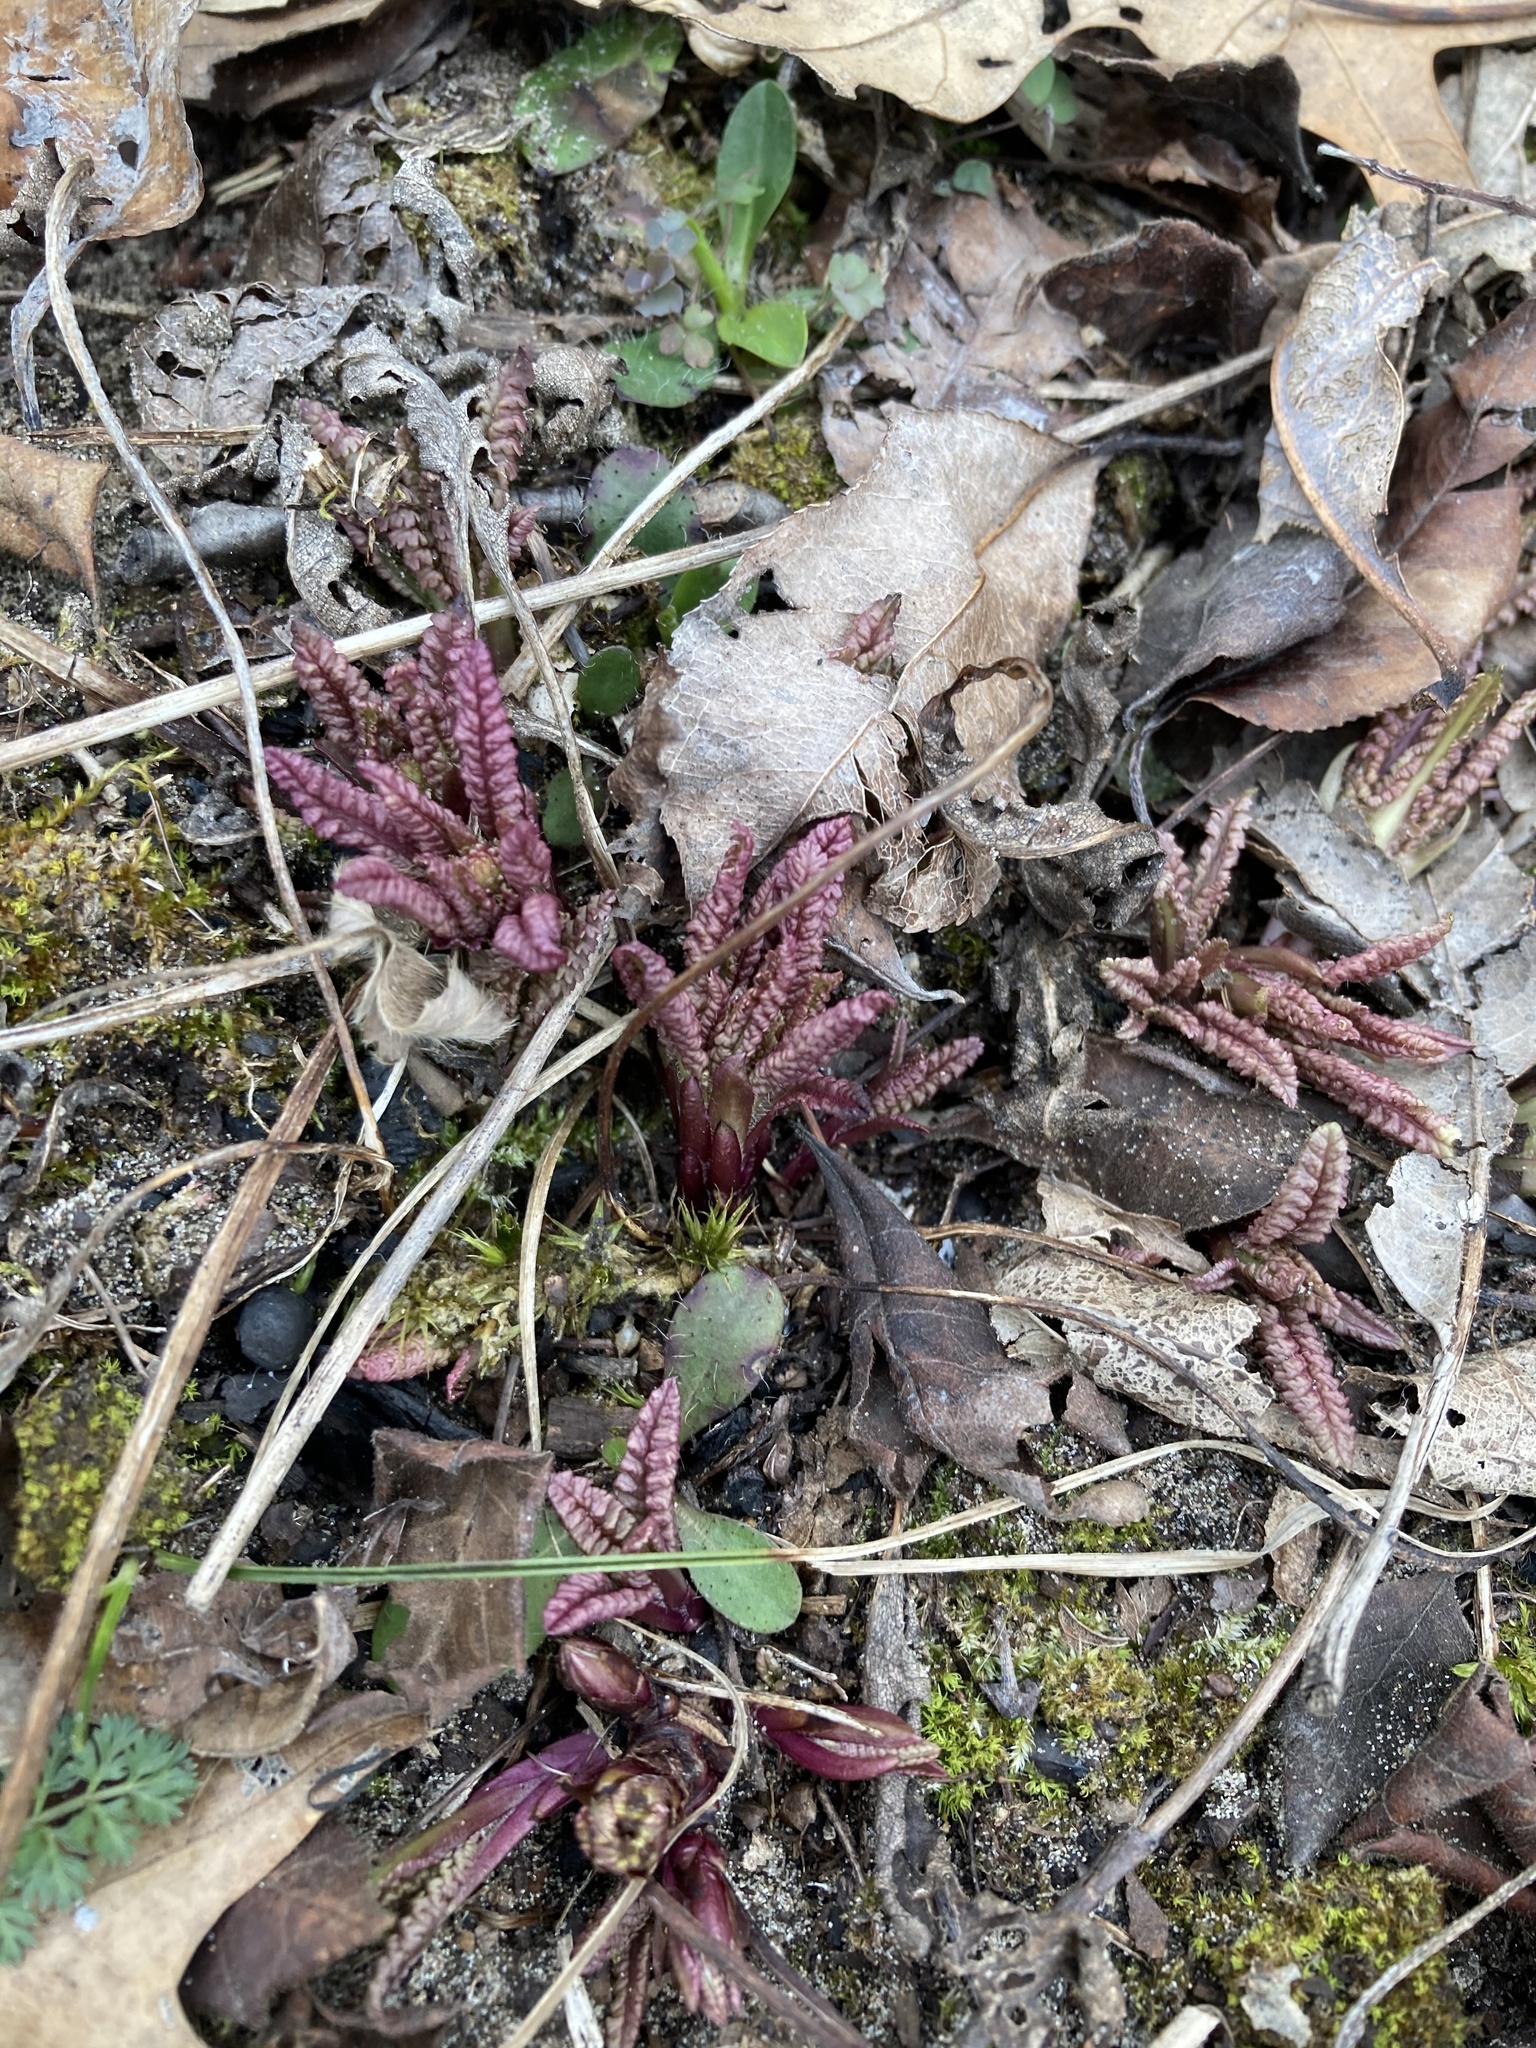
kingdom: Plantae
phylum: Tracheophyta
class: Magnoliopsida
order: Lamiales
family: Orobanchaceae
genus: Pedicularis
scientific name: Pedicularis canadensis
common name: Early lousewort
